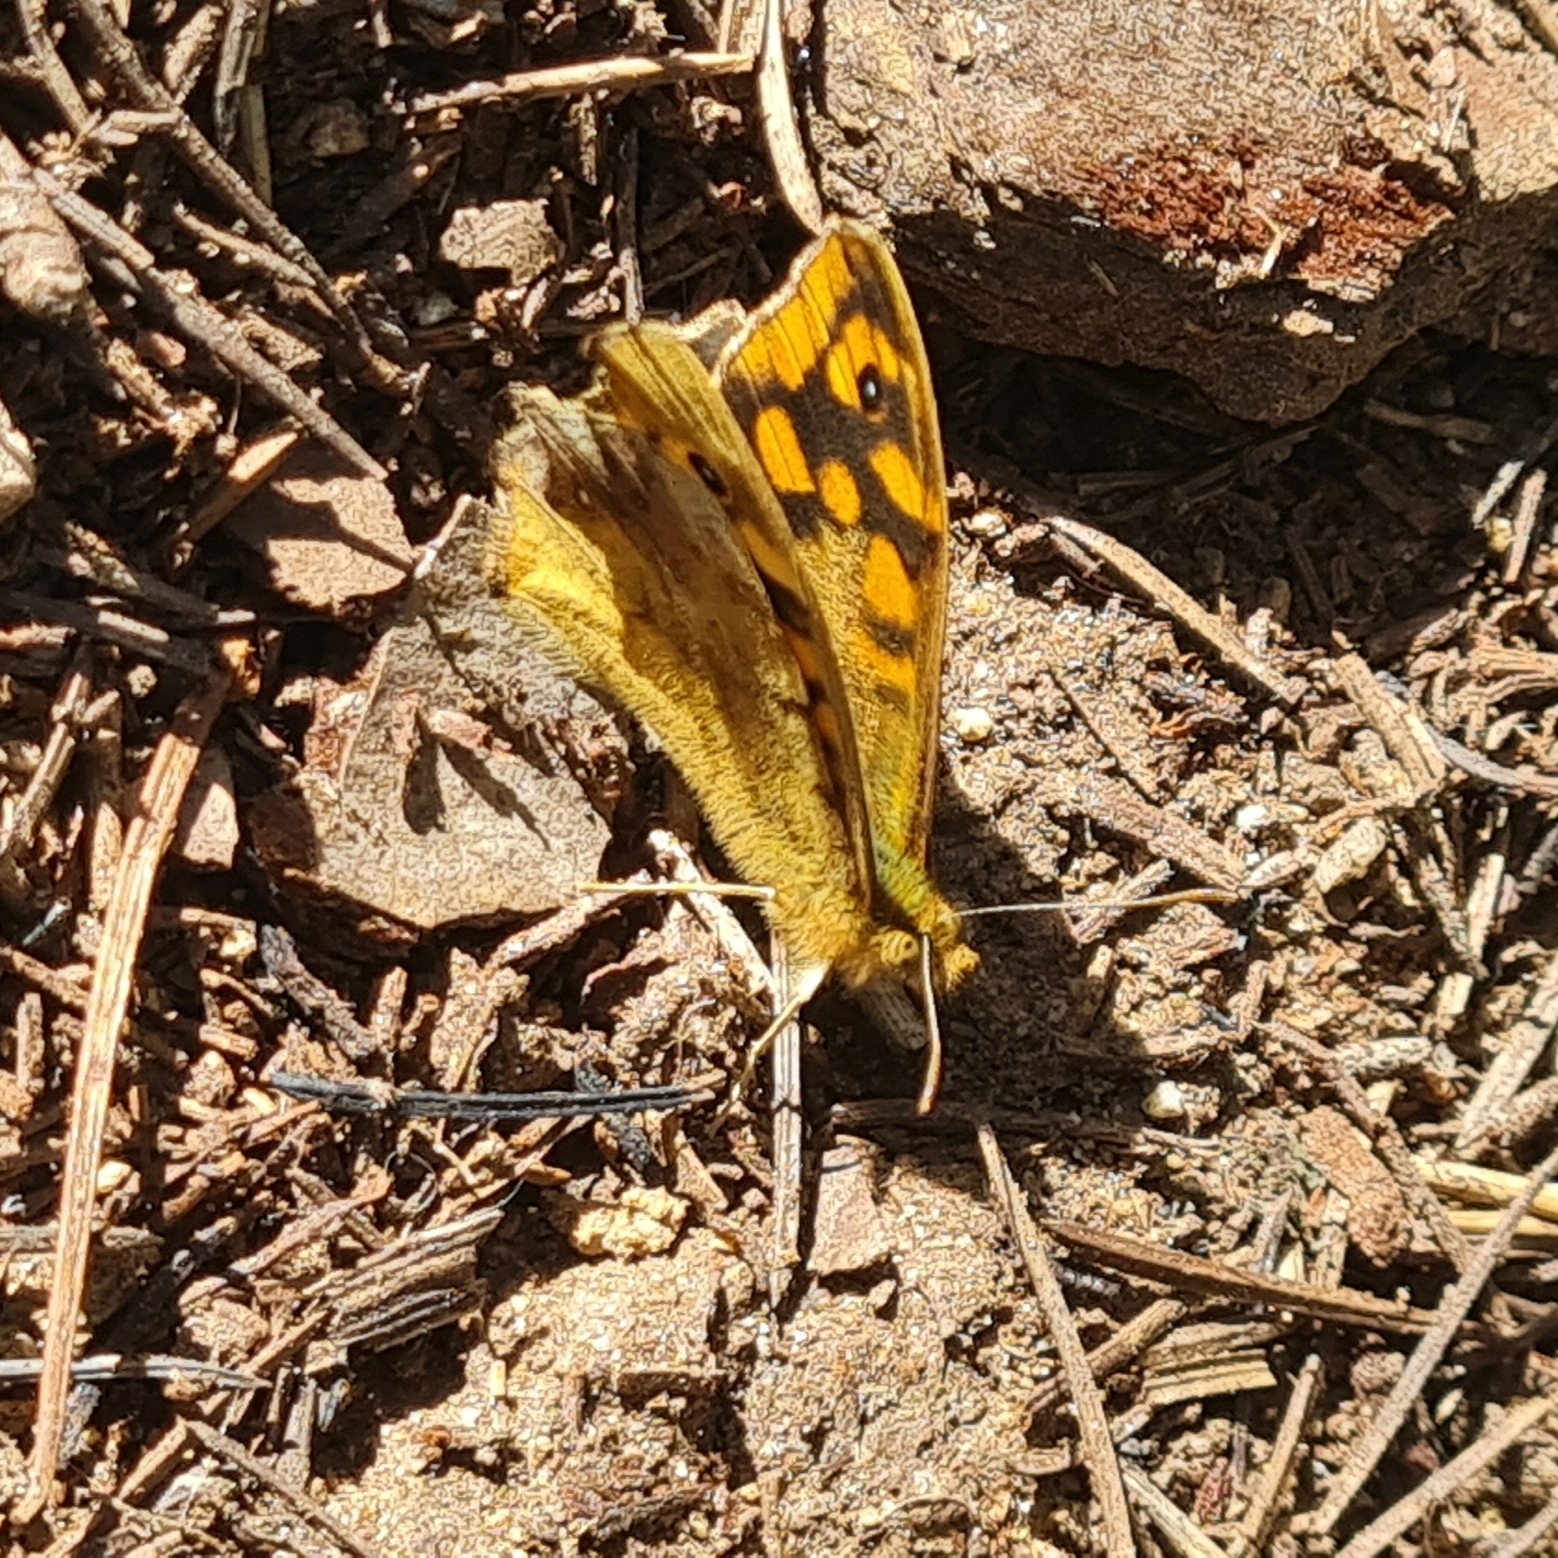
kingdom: Animalia
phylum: Arthropoda
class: Insecta
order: Lepidoptera
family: Nymphalidae
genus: Pararge
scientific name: Pararge aegeria
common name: Speckled wood
